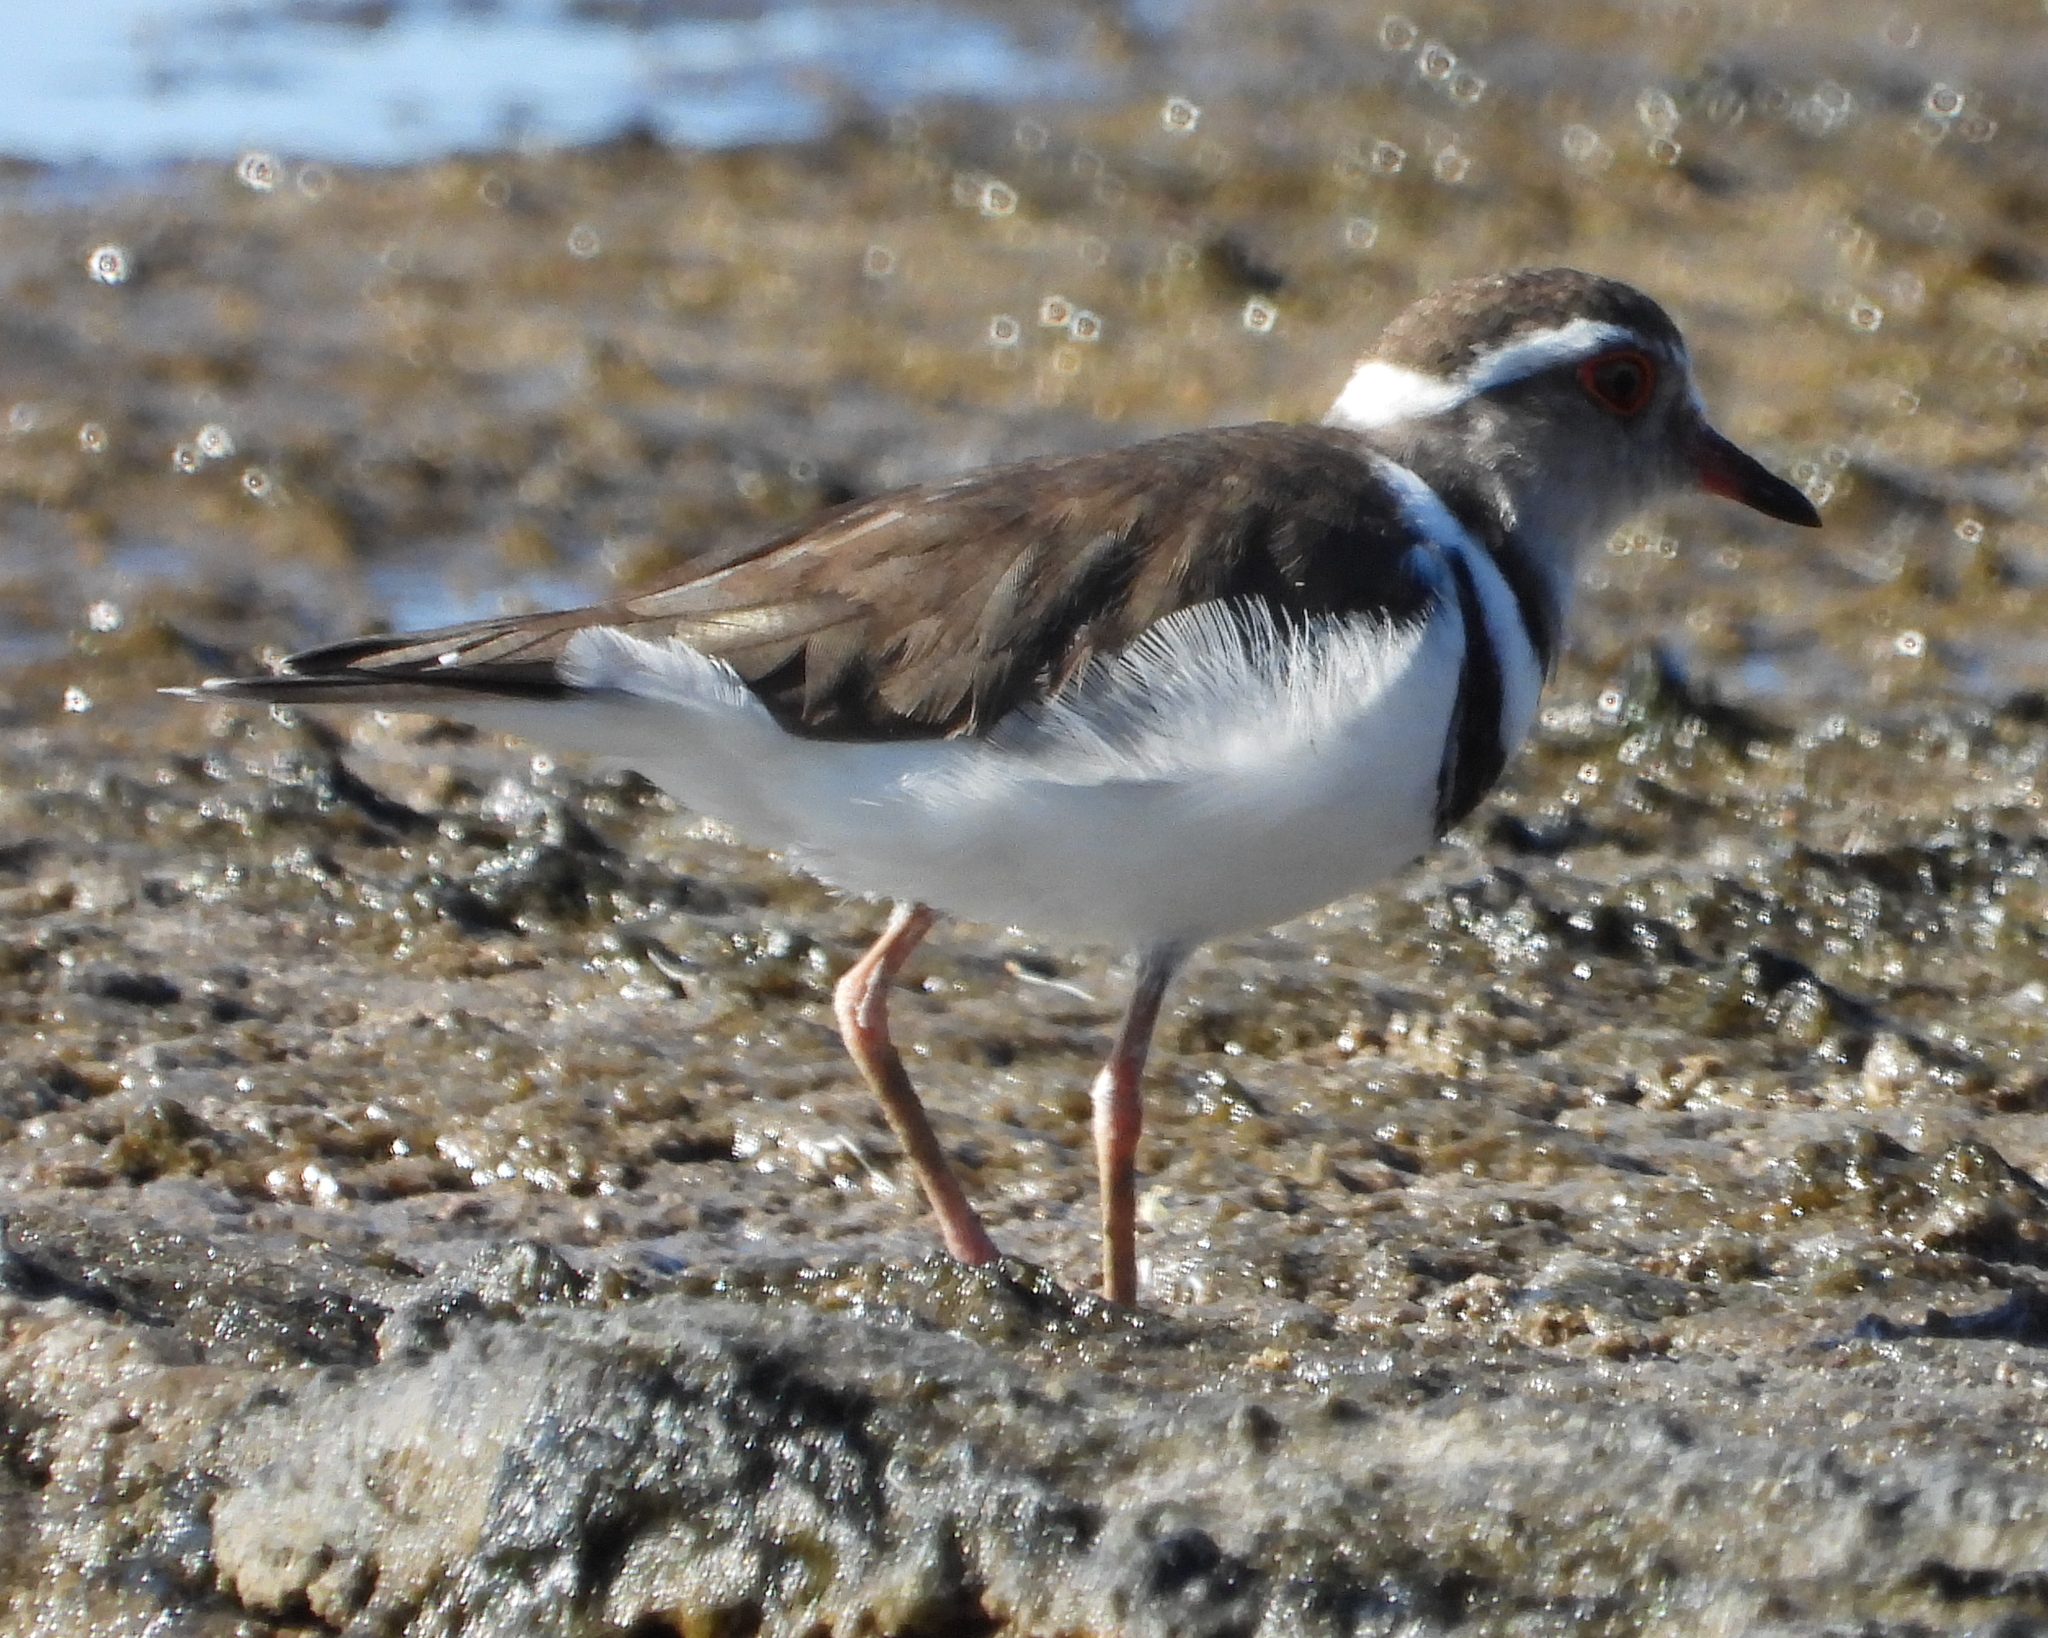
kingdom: Animalia
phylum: Chordata
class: Aves
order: Charadriiformes
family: Charadriidae
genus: Charadrius
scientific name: Charadrius tricollaris
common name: Three-banded plover
